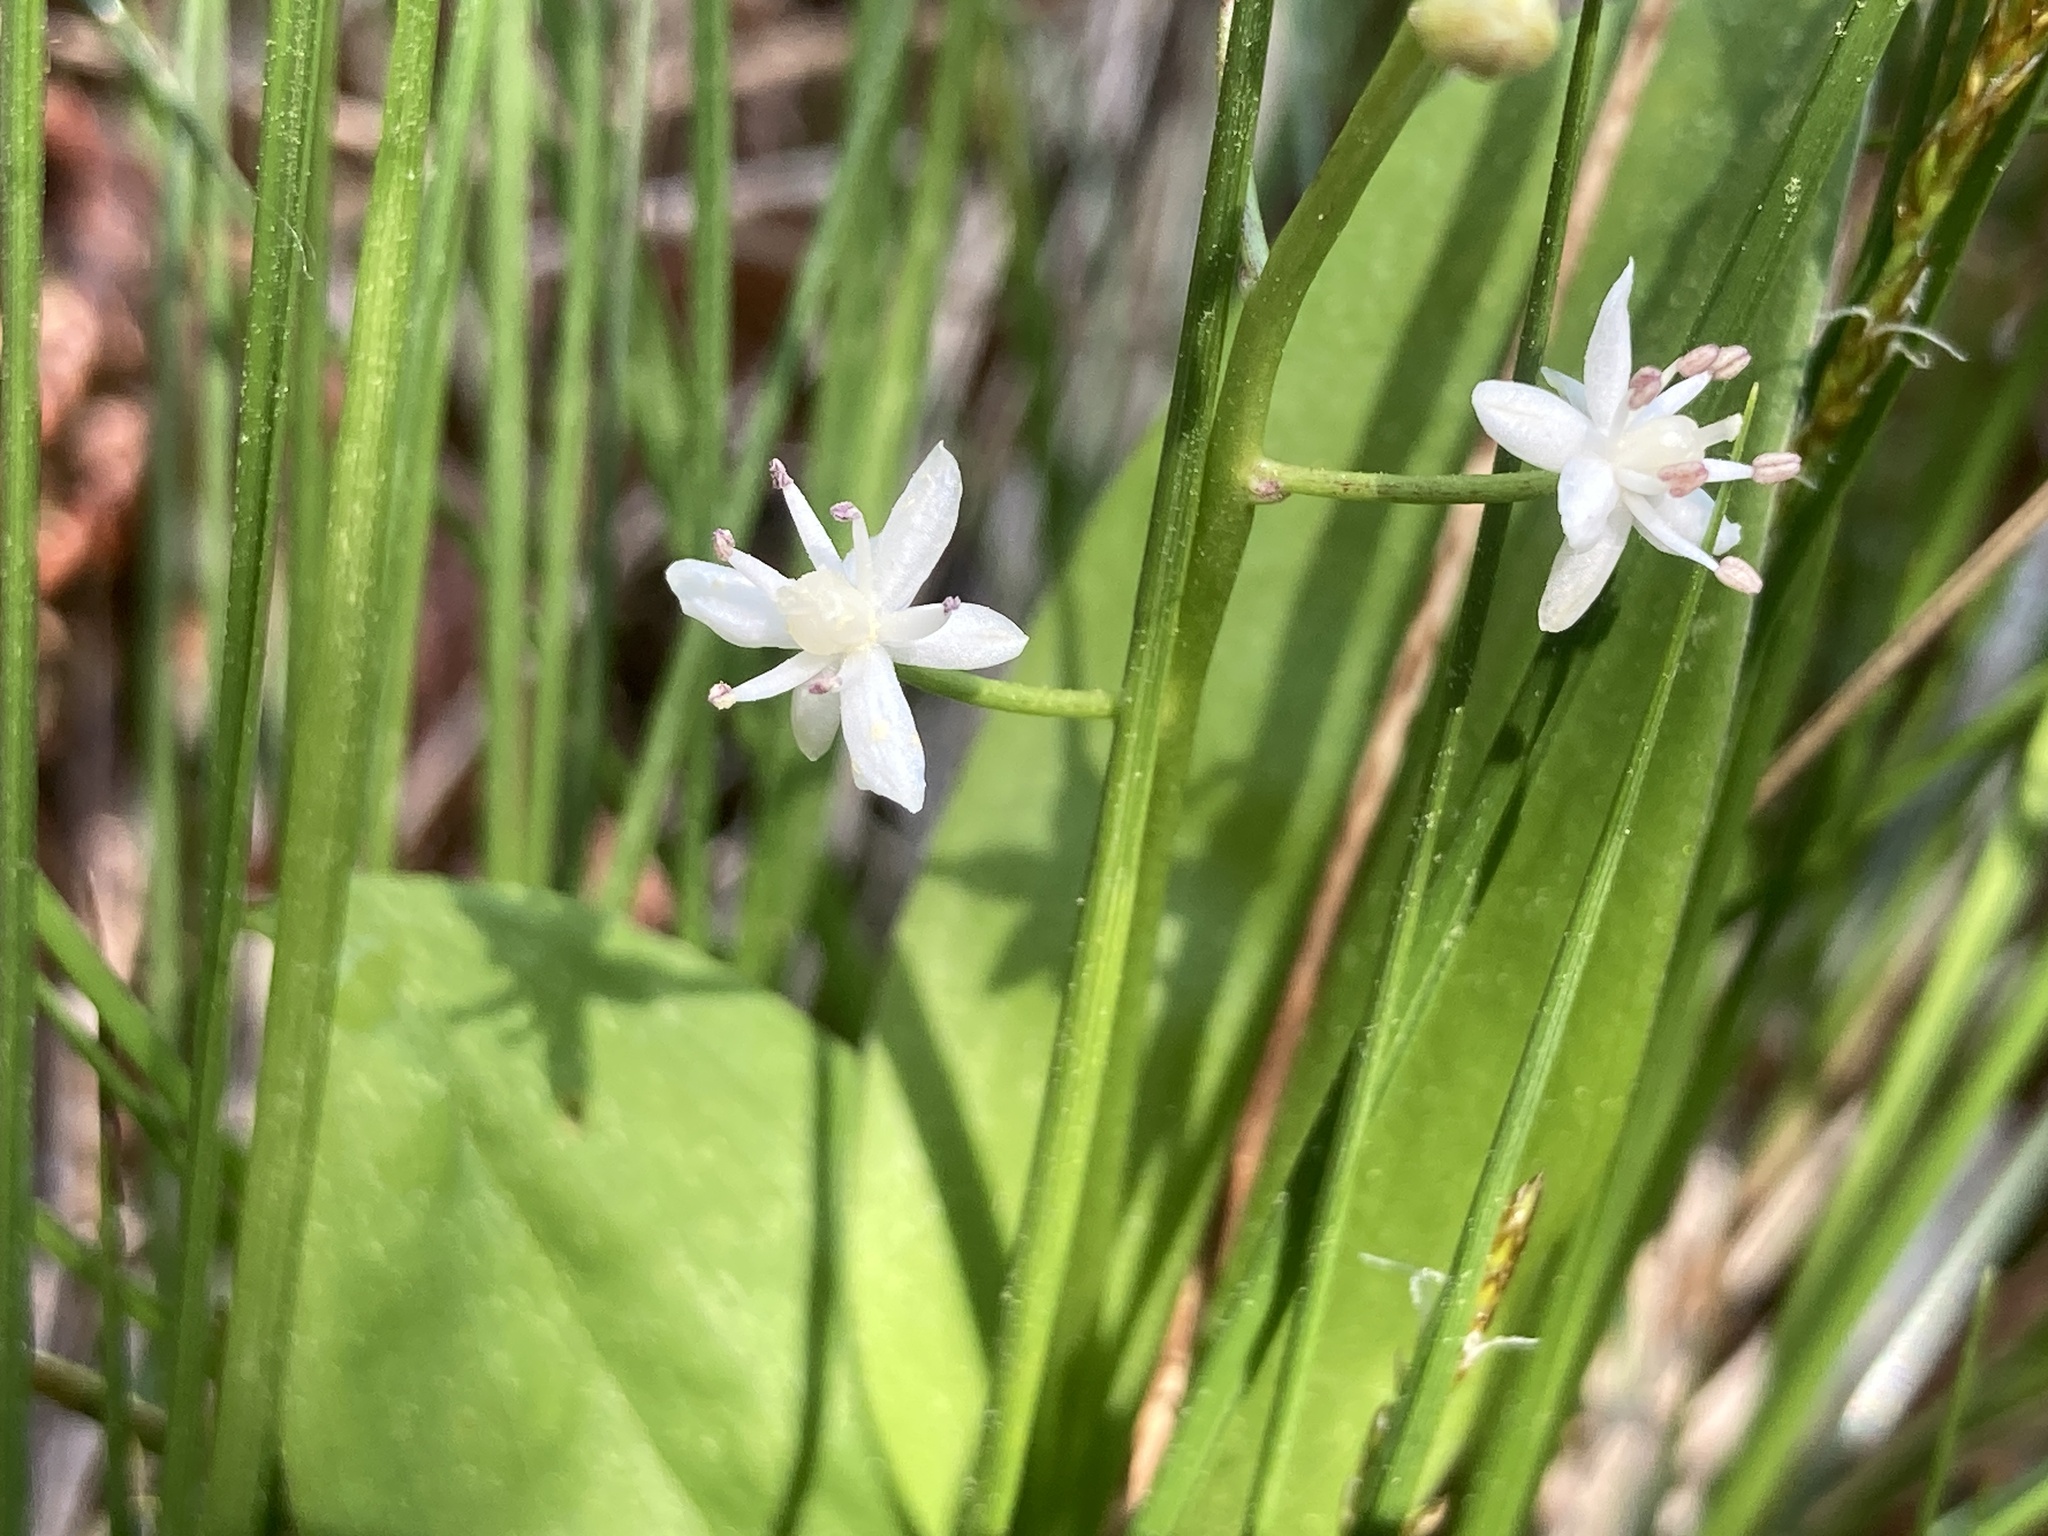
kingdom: Plantae
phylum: Tracheophyta
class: Liliopsida
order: Asparagales
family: Asparagaceae
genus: Maianthemum
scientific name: Maianthemum trifolium
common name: Swamp false solomon's seal
